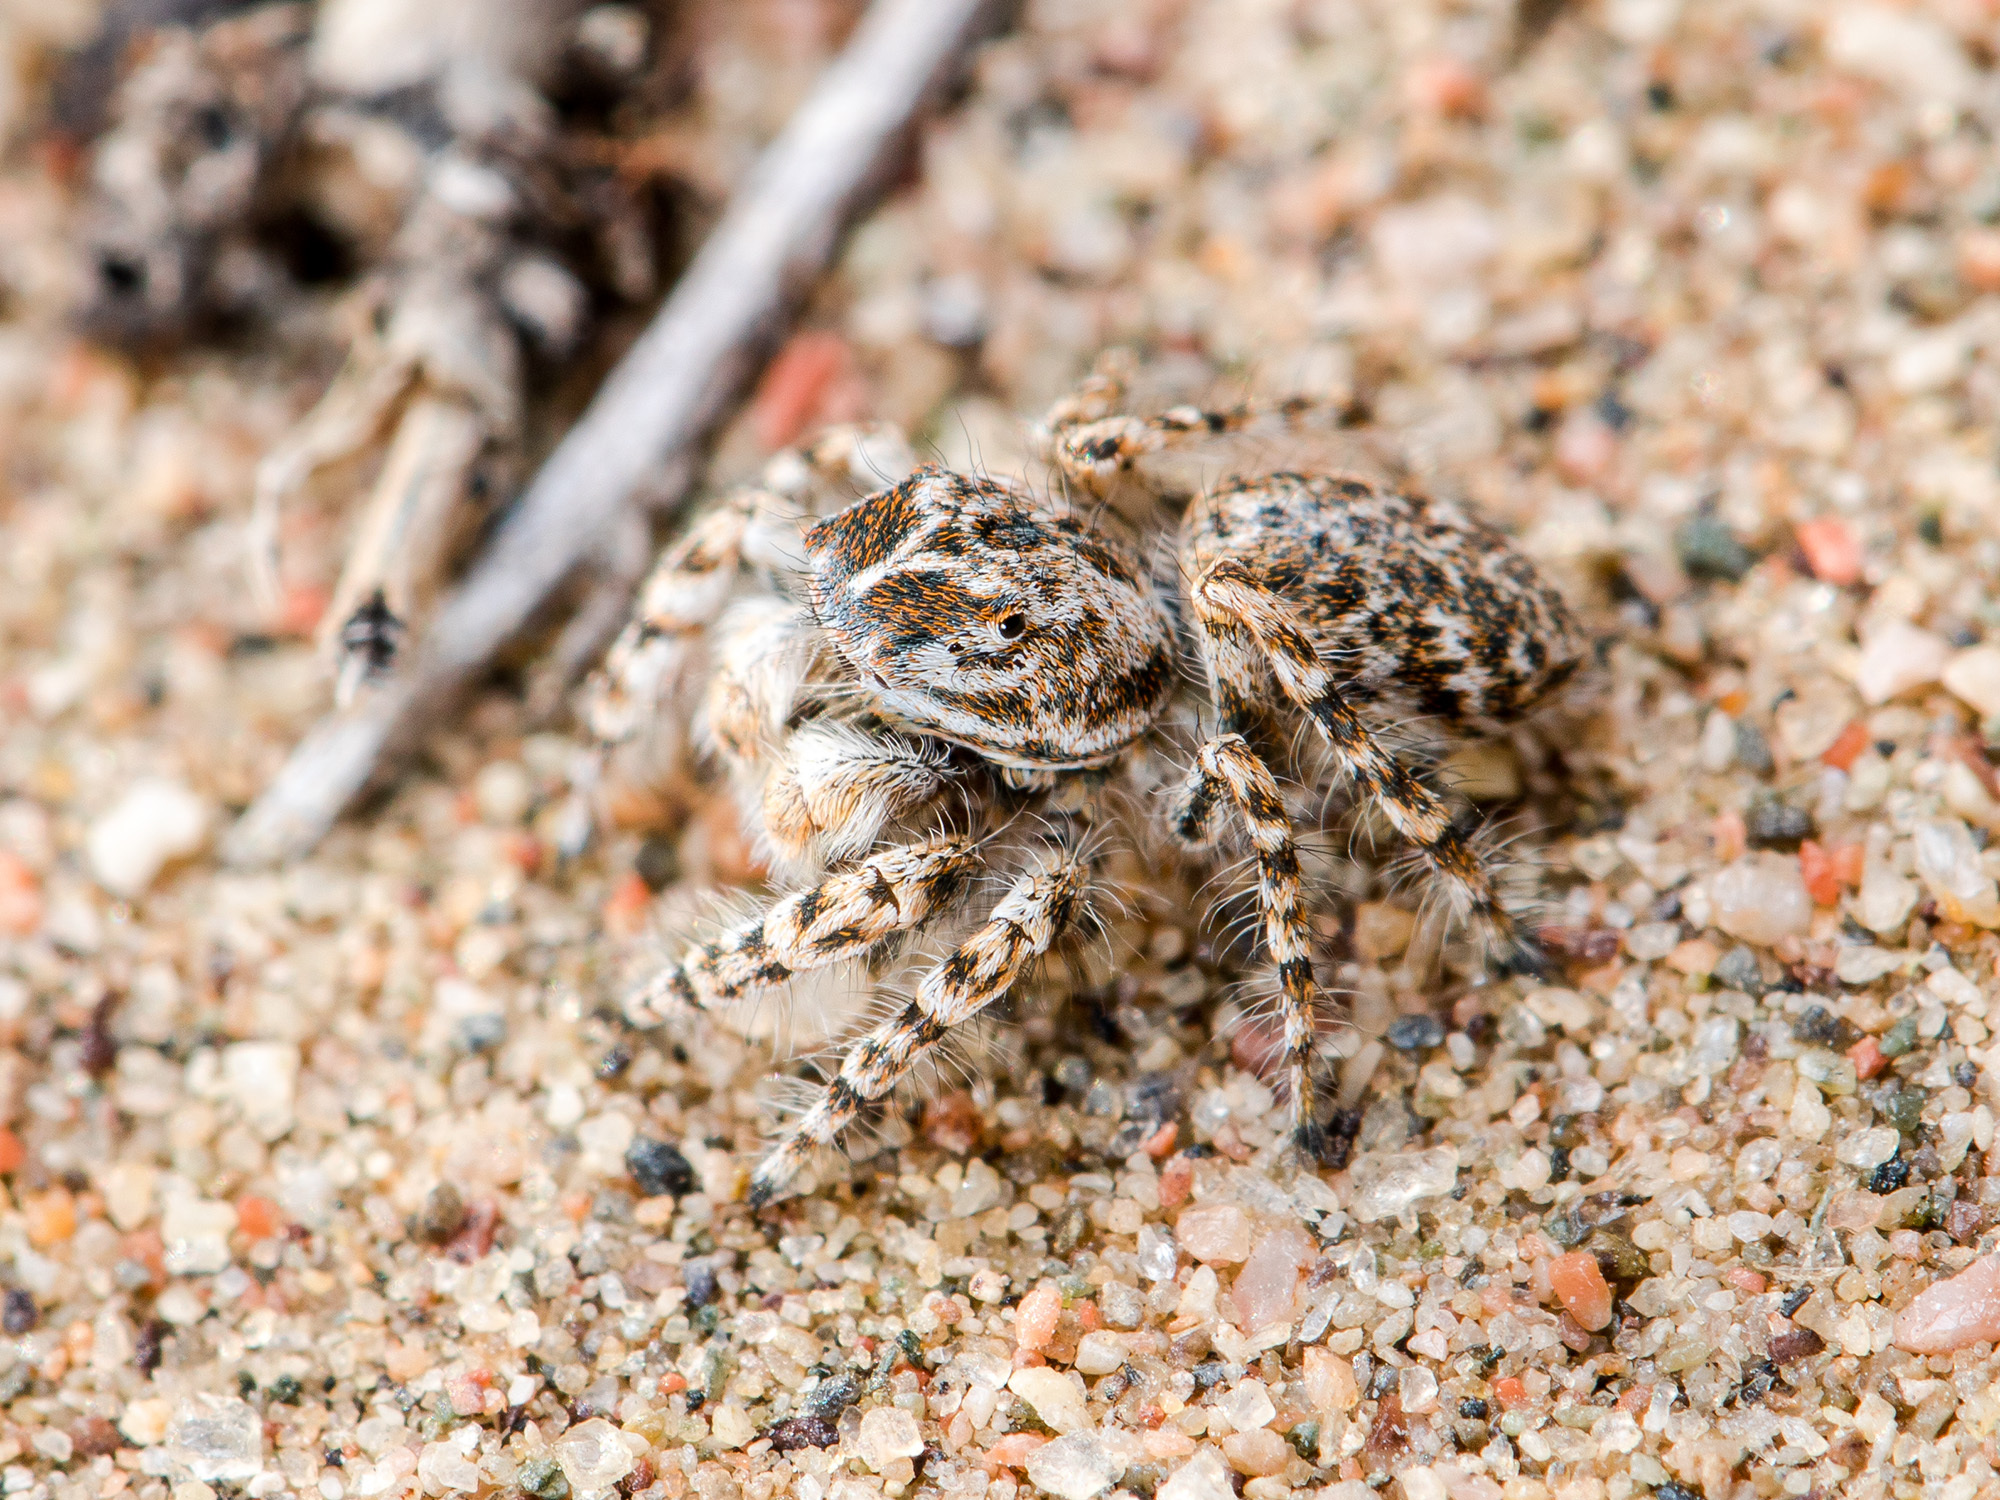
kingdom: Animalia
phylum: Arthropoda
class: Arachnida
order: Araneae
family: Salticidae
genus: Yllenus
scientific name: Yllenus turkestanicus
